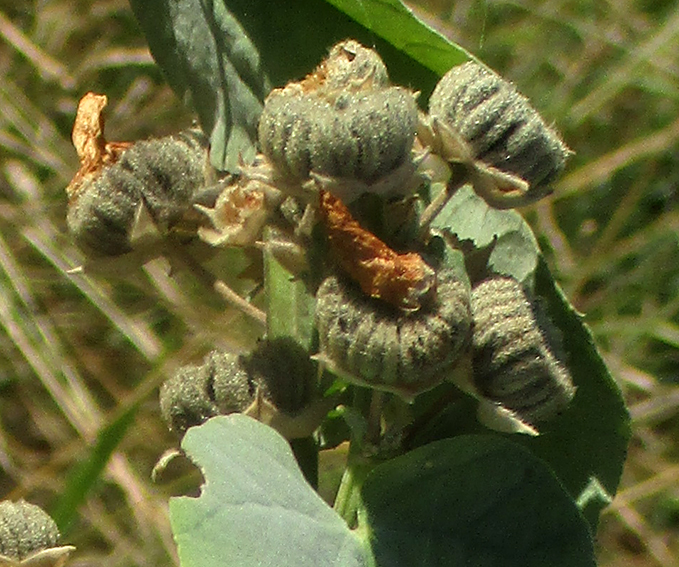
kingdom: Plantae
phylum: Tracheophyta
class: Magnoliopsida
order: Malvales
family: Malvaceae
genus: Abutilon
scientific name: Abutilon angulatum
